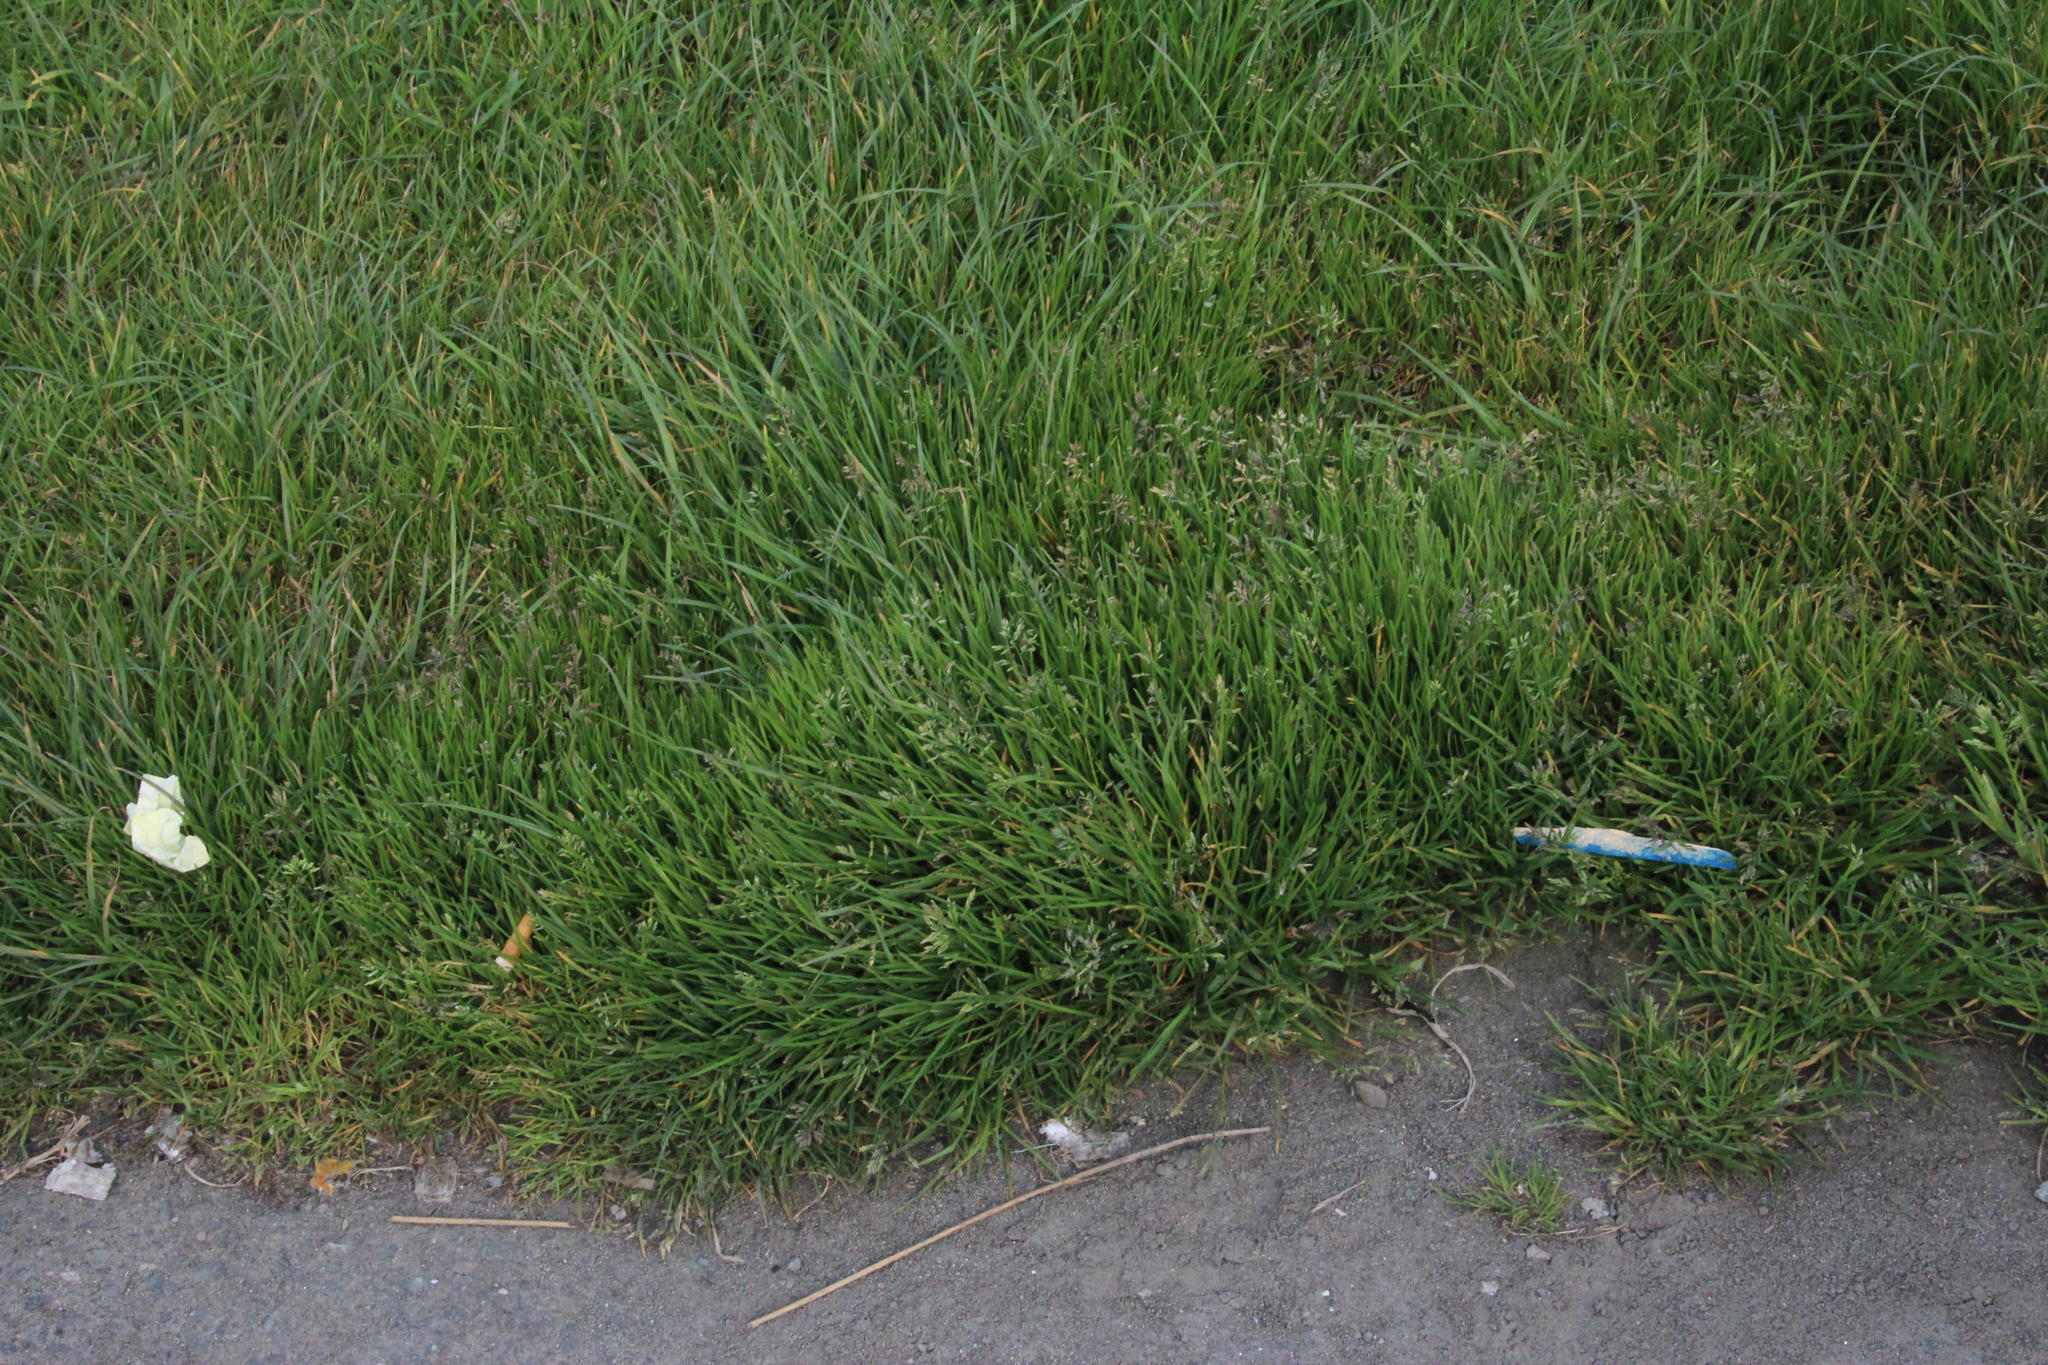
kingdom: Plantae
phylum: Tracheophyta
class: Liliopsida
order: Poales
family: Poaceae
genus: Poa
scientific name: Poa annua
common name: Annual bluegrass
